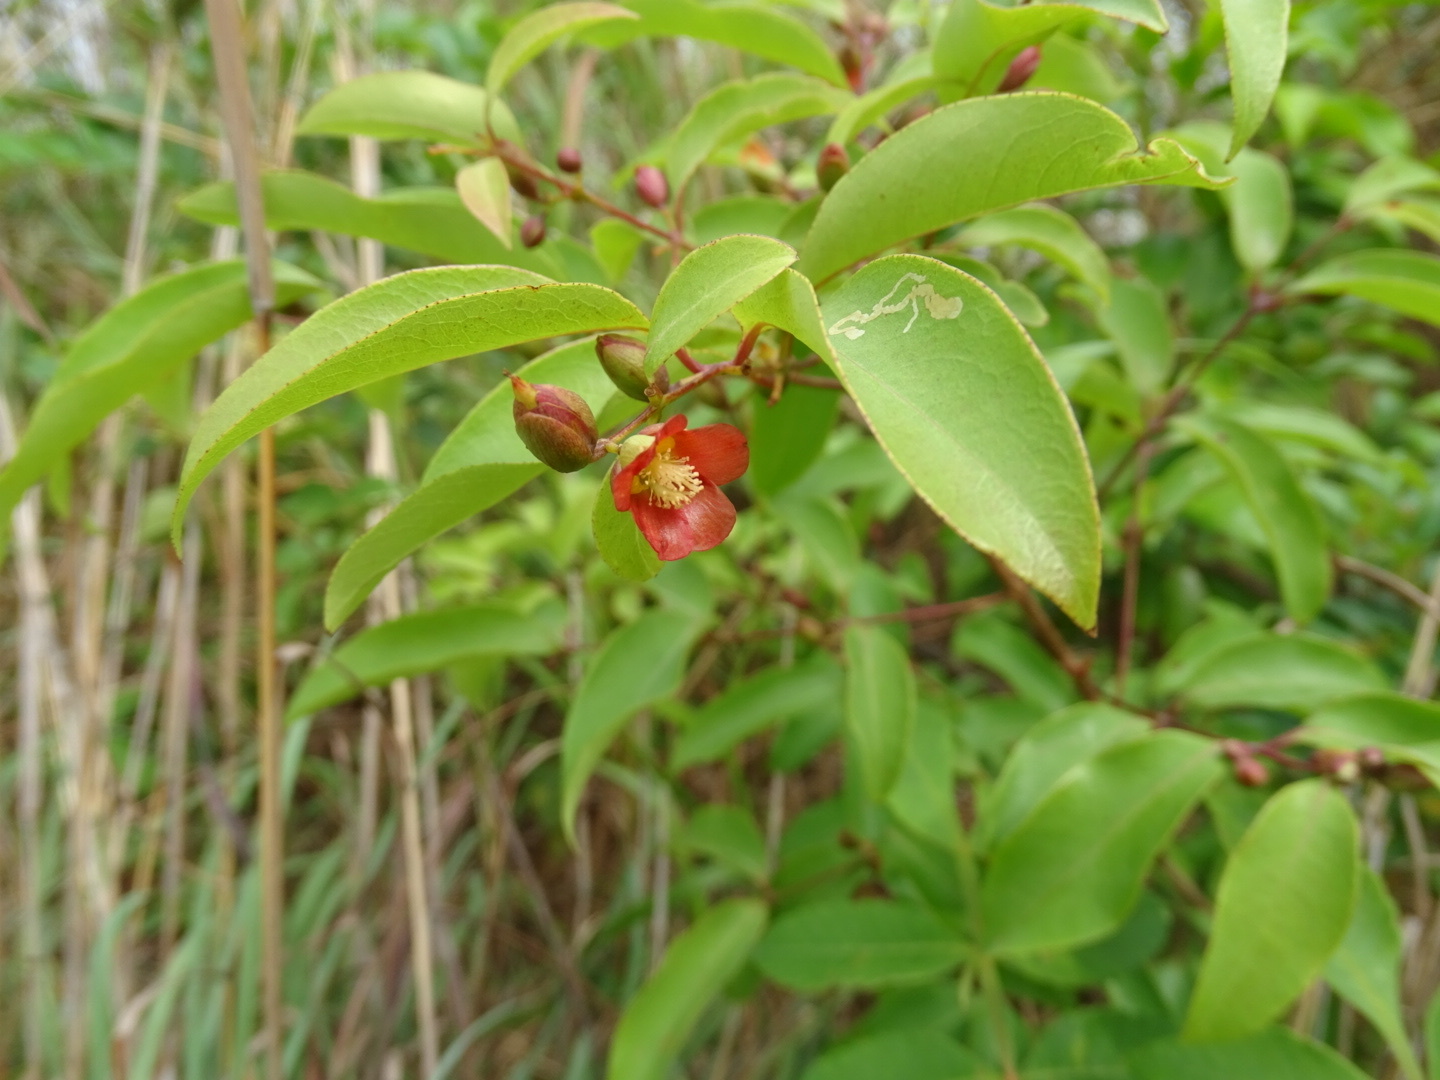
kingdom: Plantae
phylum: Tracheophyta
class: Magnoliopsida
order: Malpighiales
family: Hypericaceae
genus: Cratoxylum
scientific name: Cratoxylum cochinchinense
